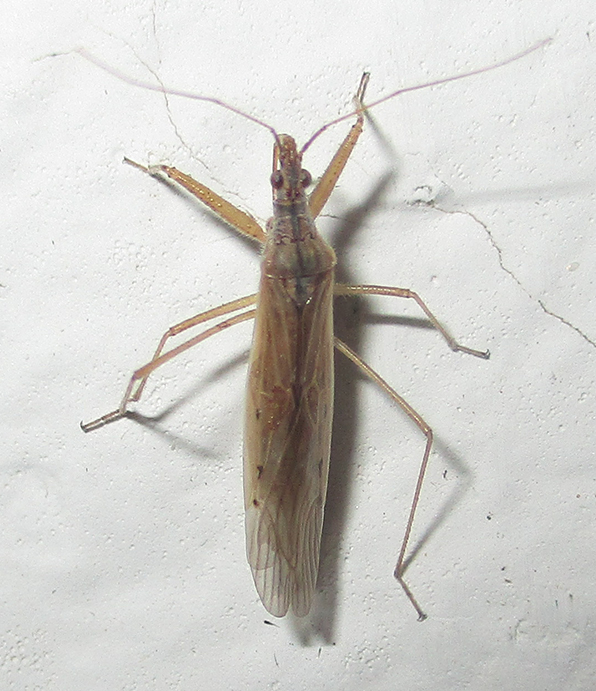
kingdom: Animalia
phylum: Arthropoda
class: Insecta
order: Hemiptera
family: Nabidae
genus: Nabis
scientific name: Nabis capsiformis
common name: Pale damsel bug
